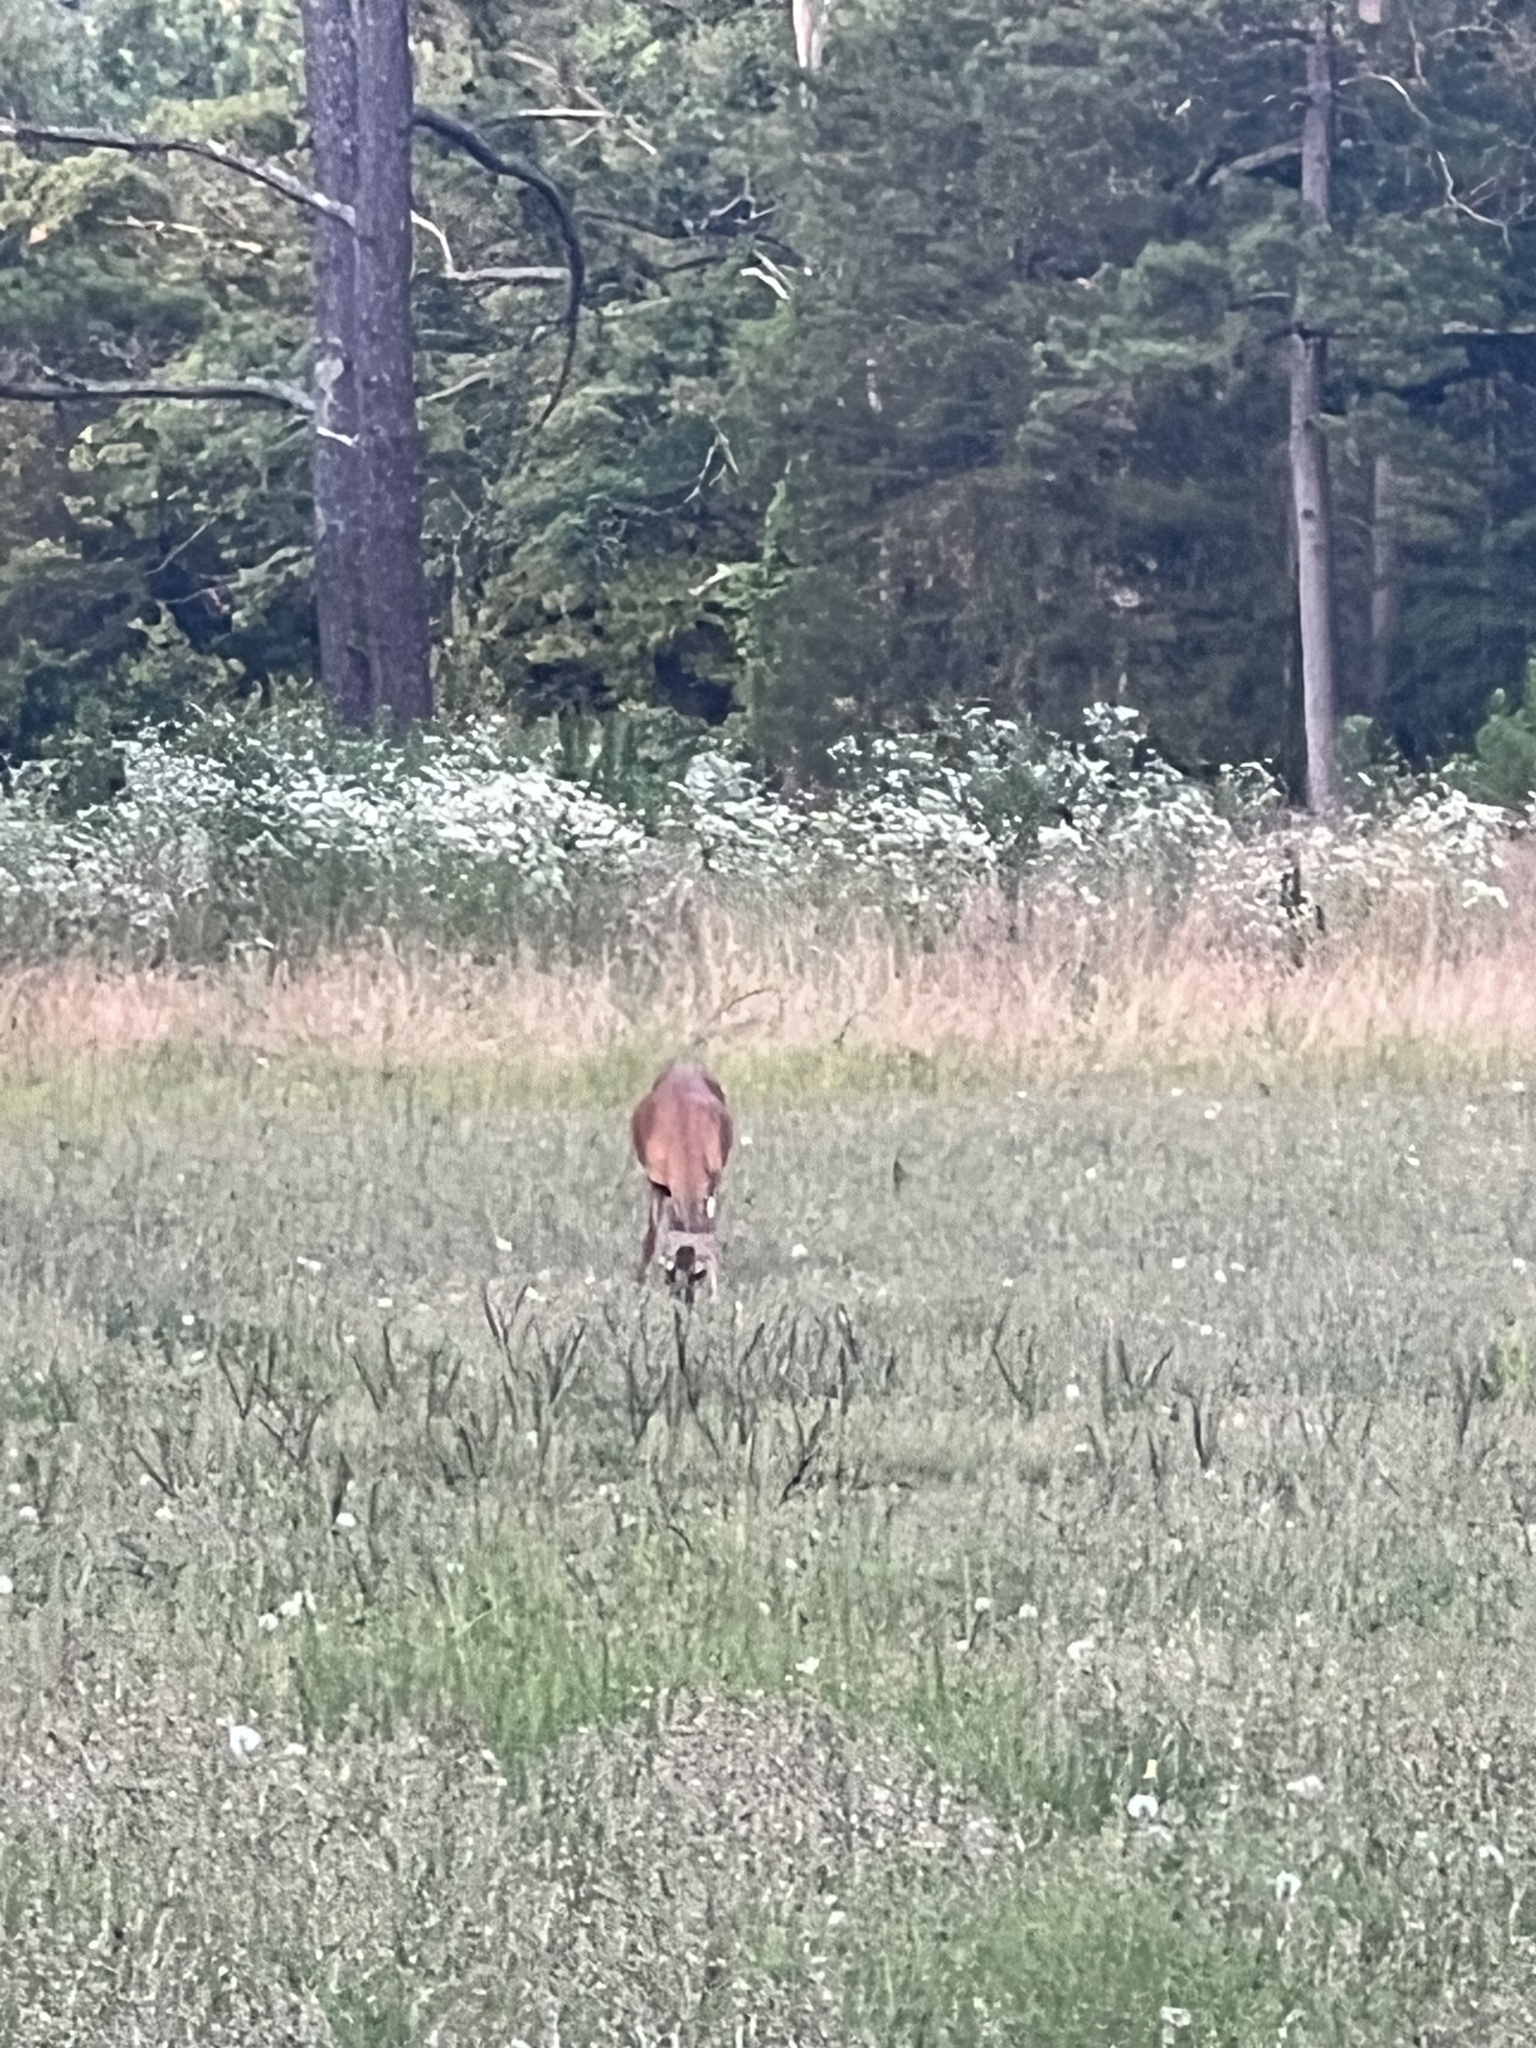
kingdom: Animalia
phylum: Chordata
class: Mammalia
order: Artiodactyla
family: Cervidae
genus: Odocoileus
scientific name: Odocoileus virginianus
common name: White-tailed deer
